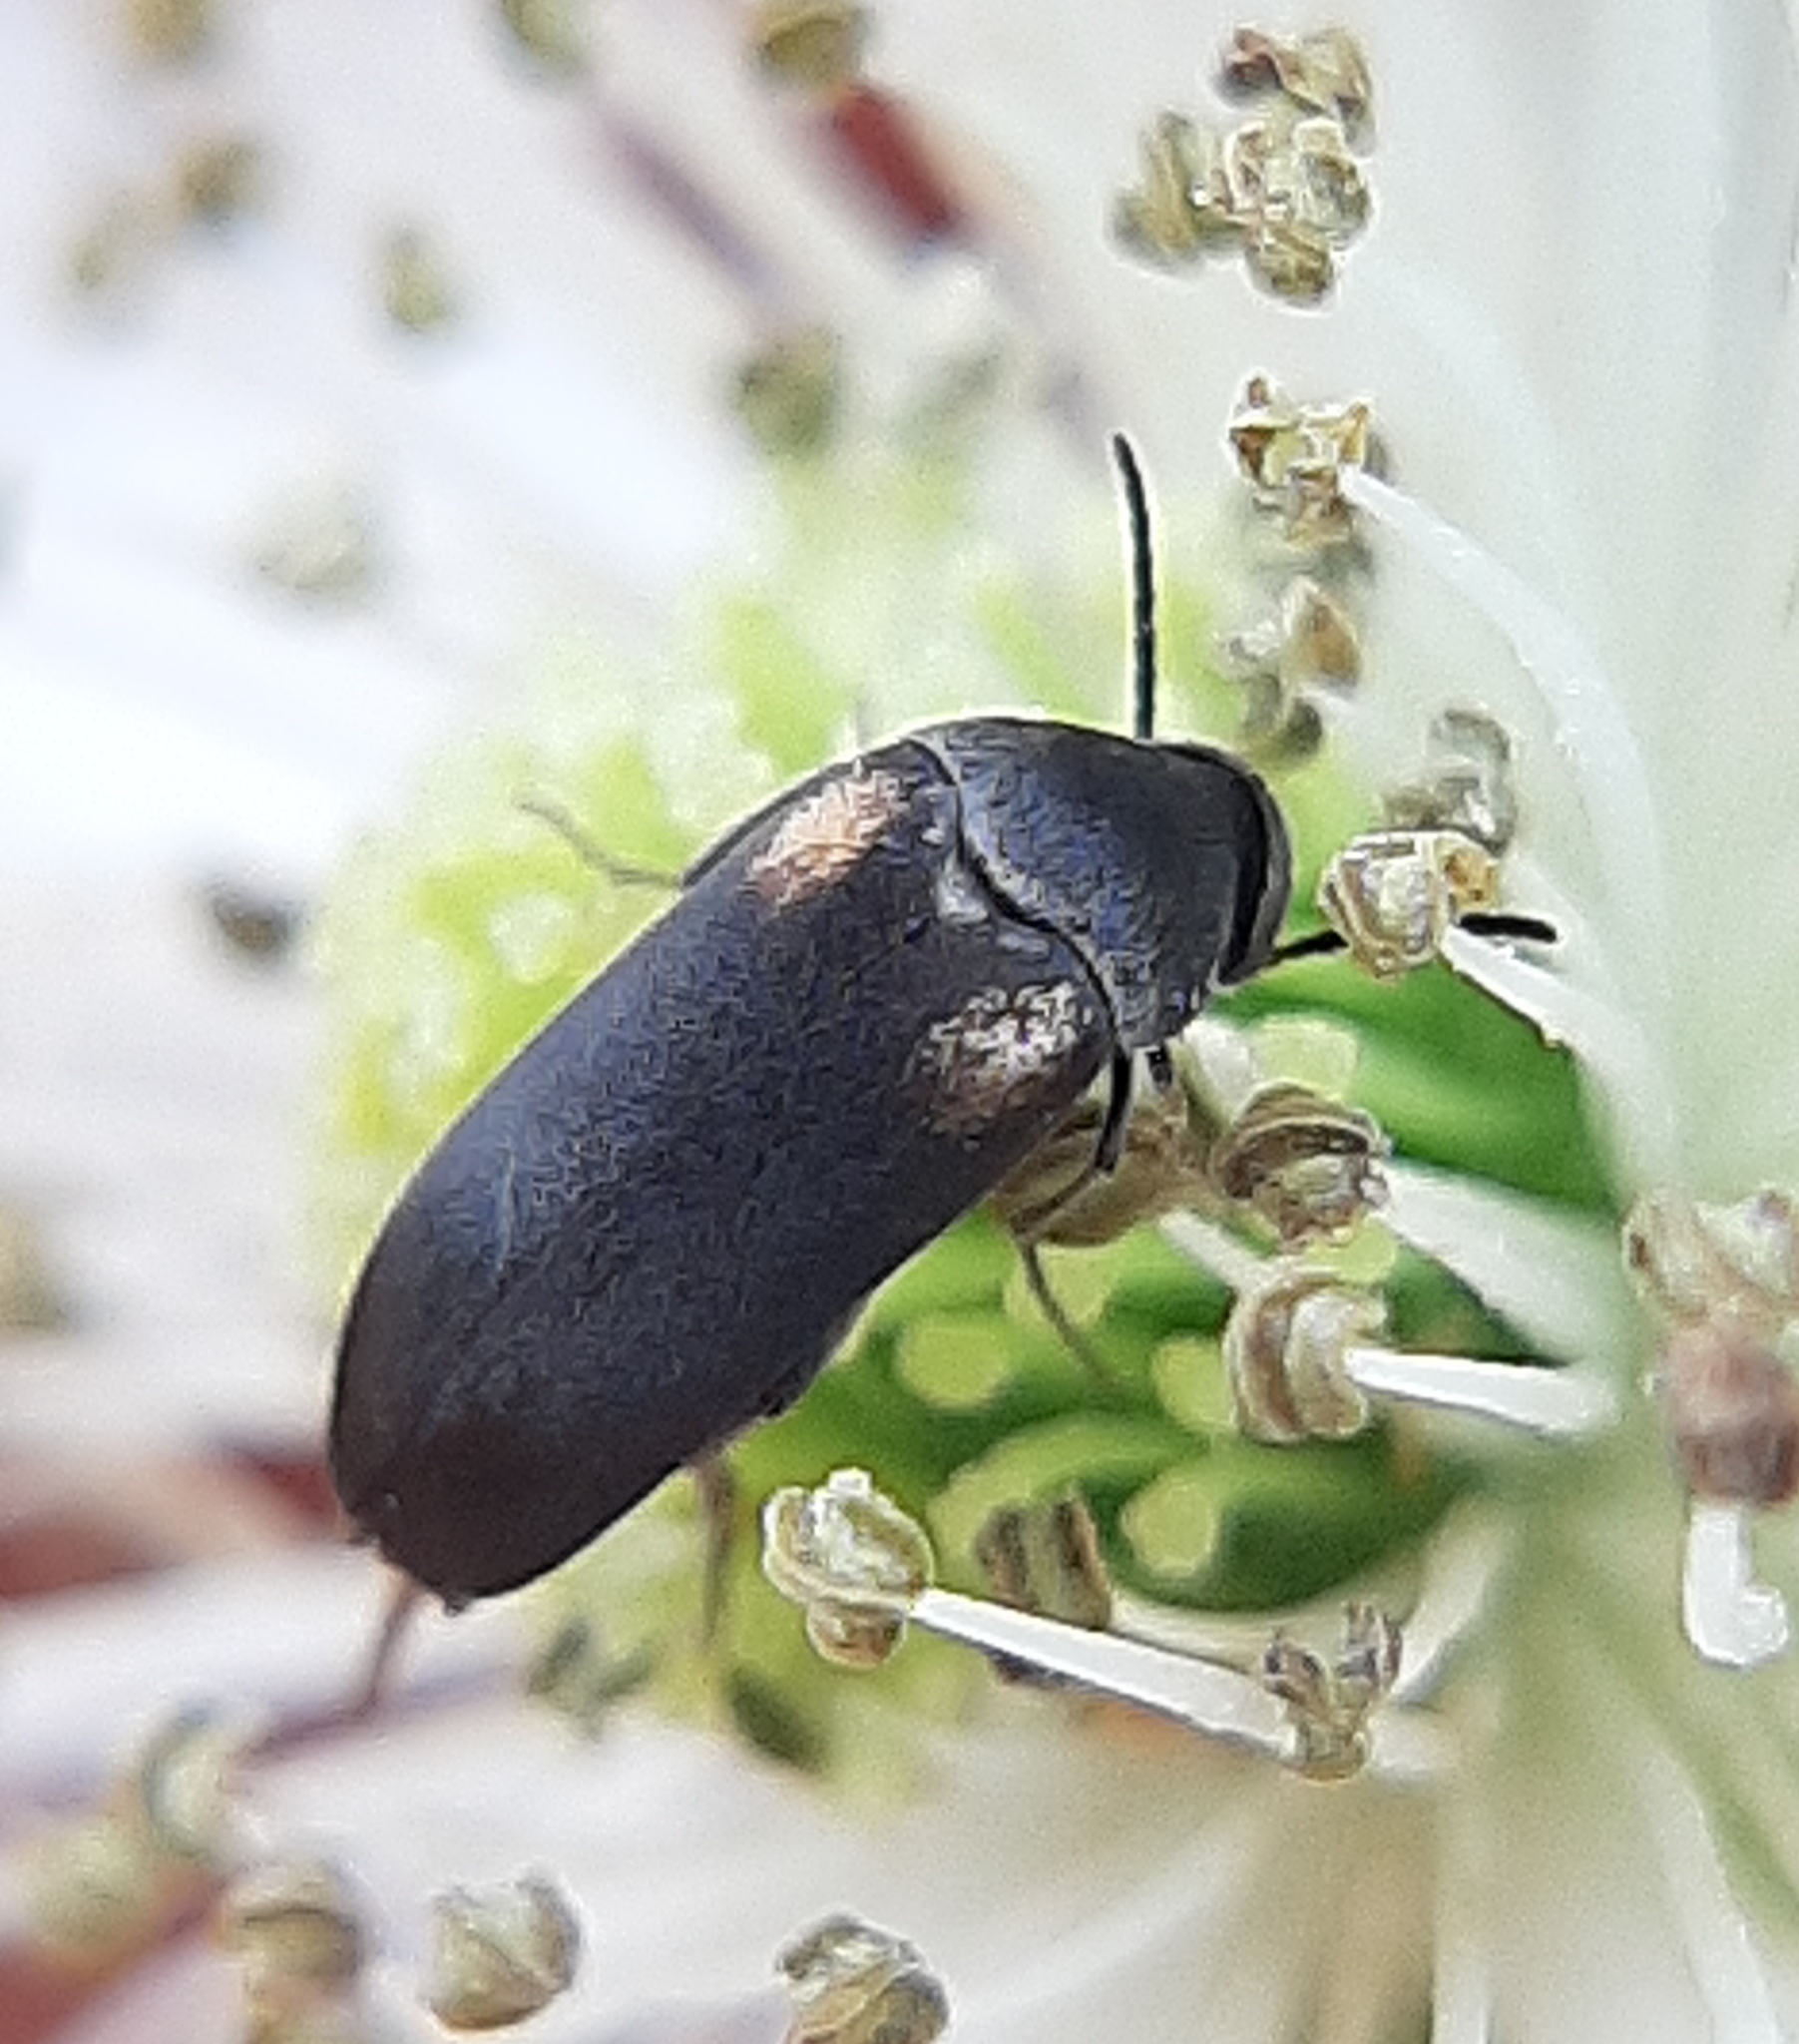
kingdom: Animalia
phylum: Arthropoda
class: Insecta
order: Coleoptera
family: Mordellidae
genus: Mordellochroa
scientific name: Mordellochroa scapularis
